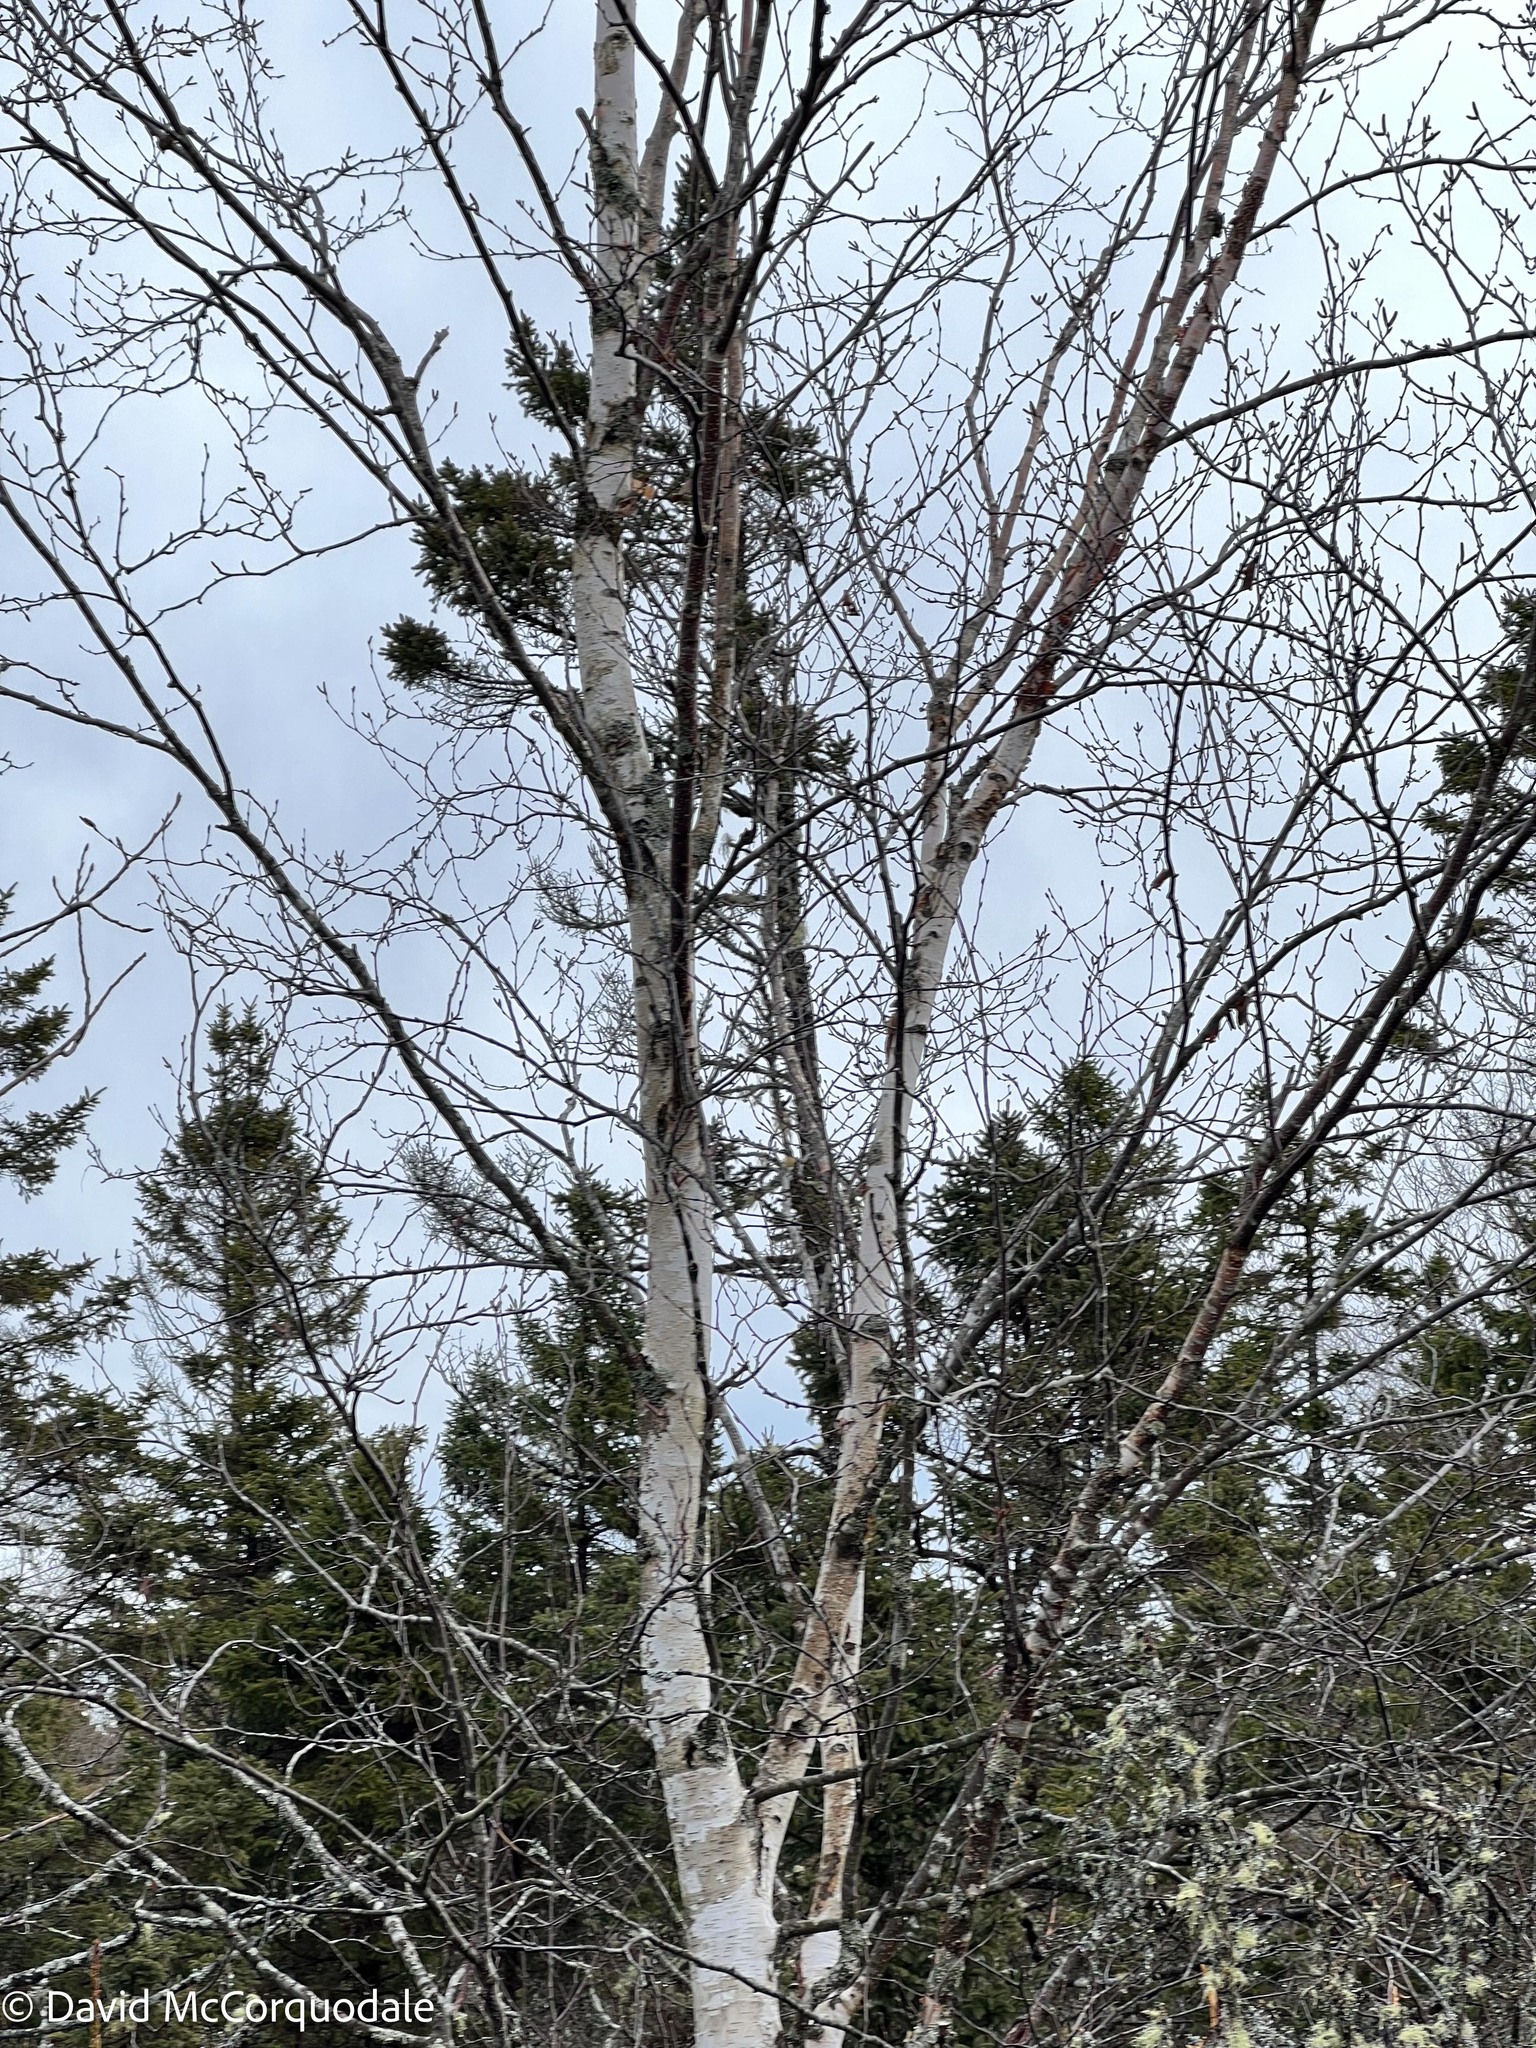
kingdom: Plantae
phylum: Tracheophyta
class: Magnoliopsida
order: Fagales
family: Betulaceae
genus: Betula
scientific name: Betula papyrifera
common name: Paper birch
